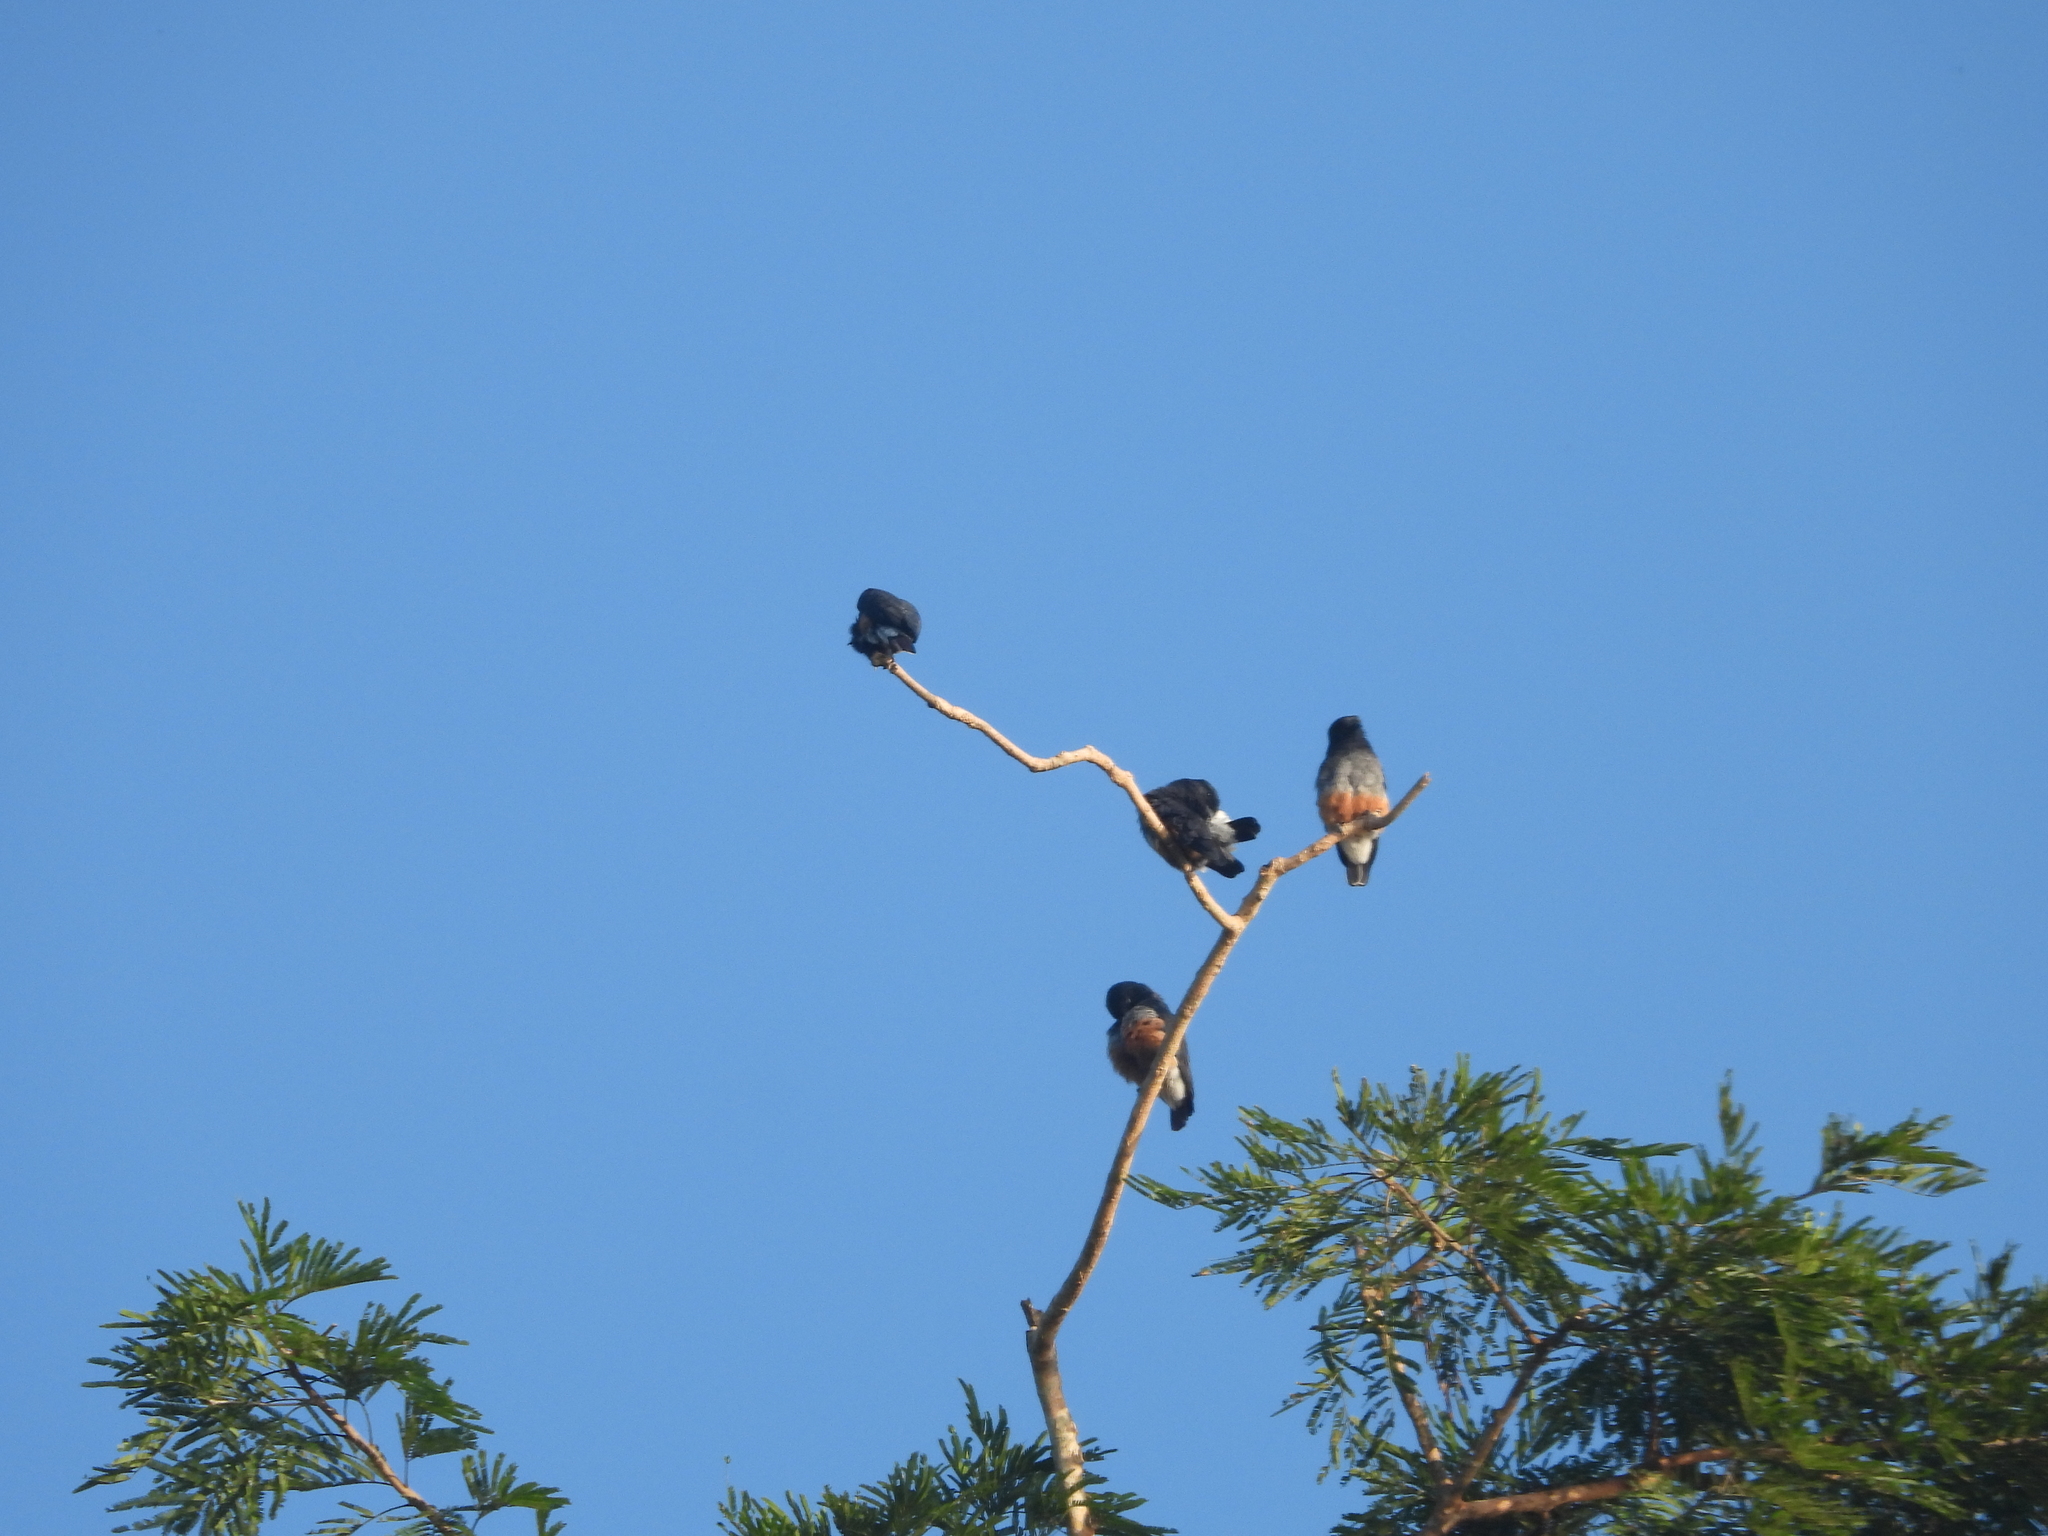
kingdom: Animalia
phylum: Chordata
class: Aves
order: Piciformes
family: Bucconidae
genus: Chelidoptera
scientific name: Chelidoptera tenebrosa
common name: Swallow-winged puffbird
